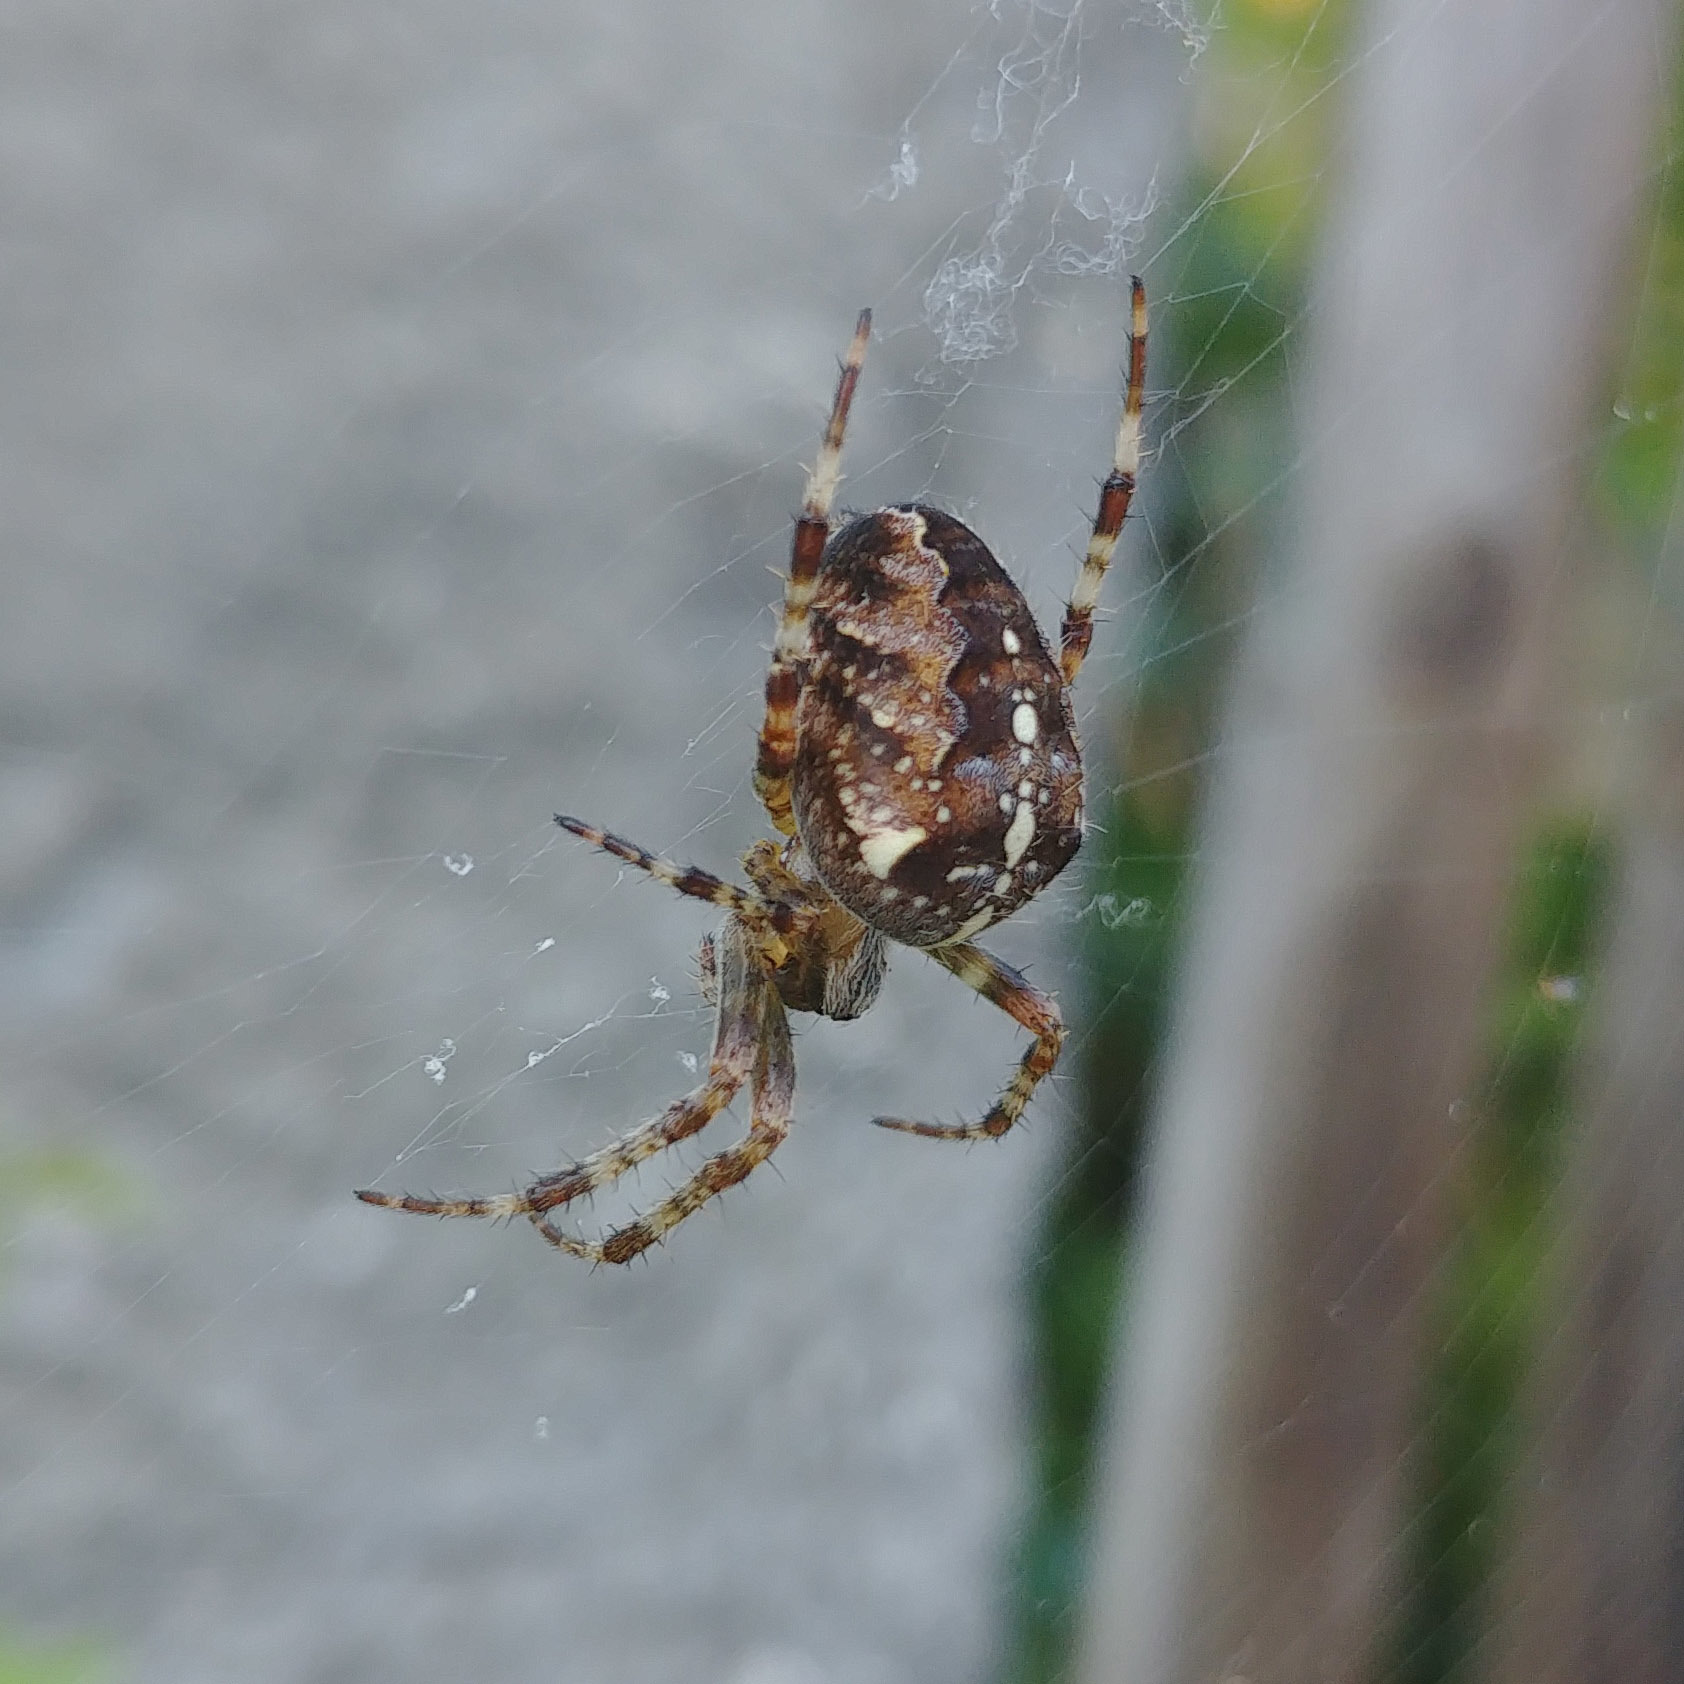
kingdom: Animalia
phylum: Arthropoda
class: Arachnida
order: Araneae
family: Araneidae
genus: Araneus
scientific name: Araneus diadematus
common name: Cross orbweaver
